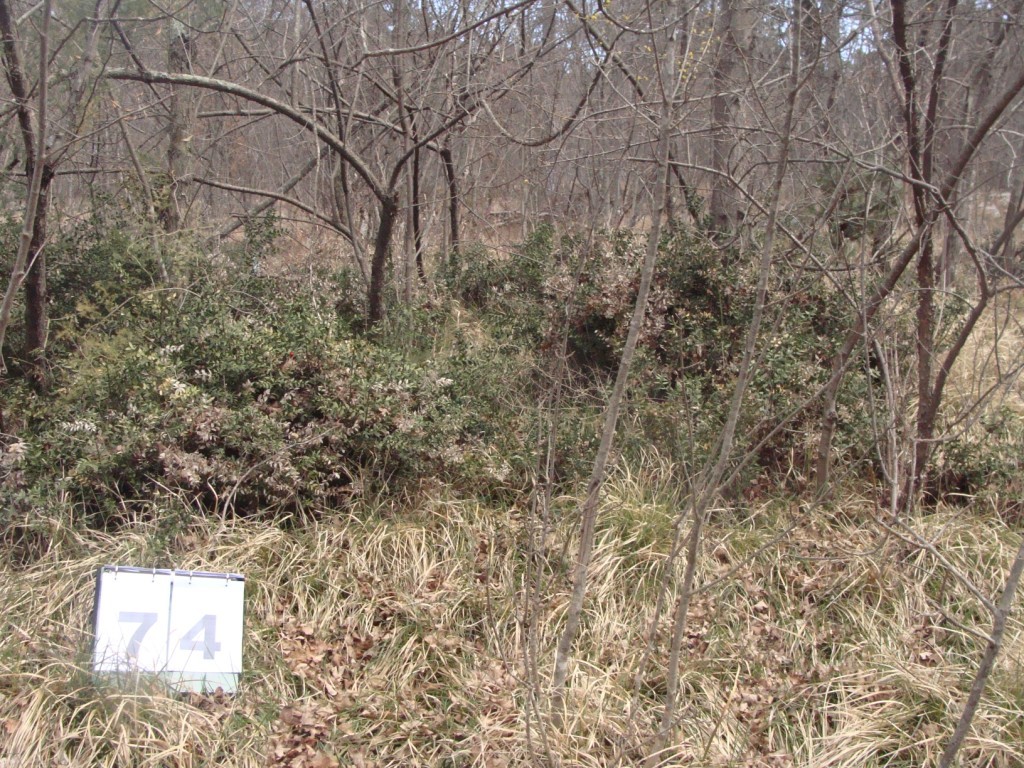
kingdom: Plantae
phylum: Tracheophyta
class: Magnoliopsida
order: Cornales
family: Cornaceae
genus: Cornus
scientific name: Cornus mas
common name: Cornelian-cherry
